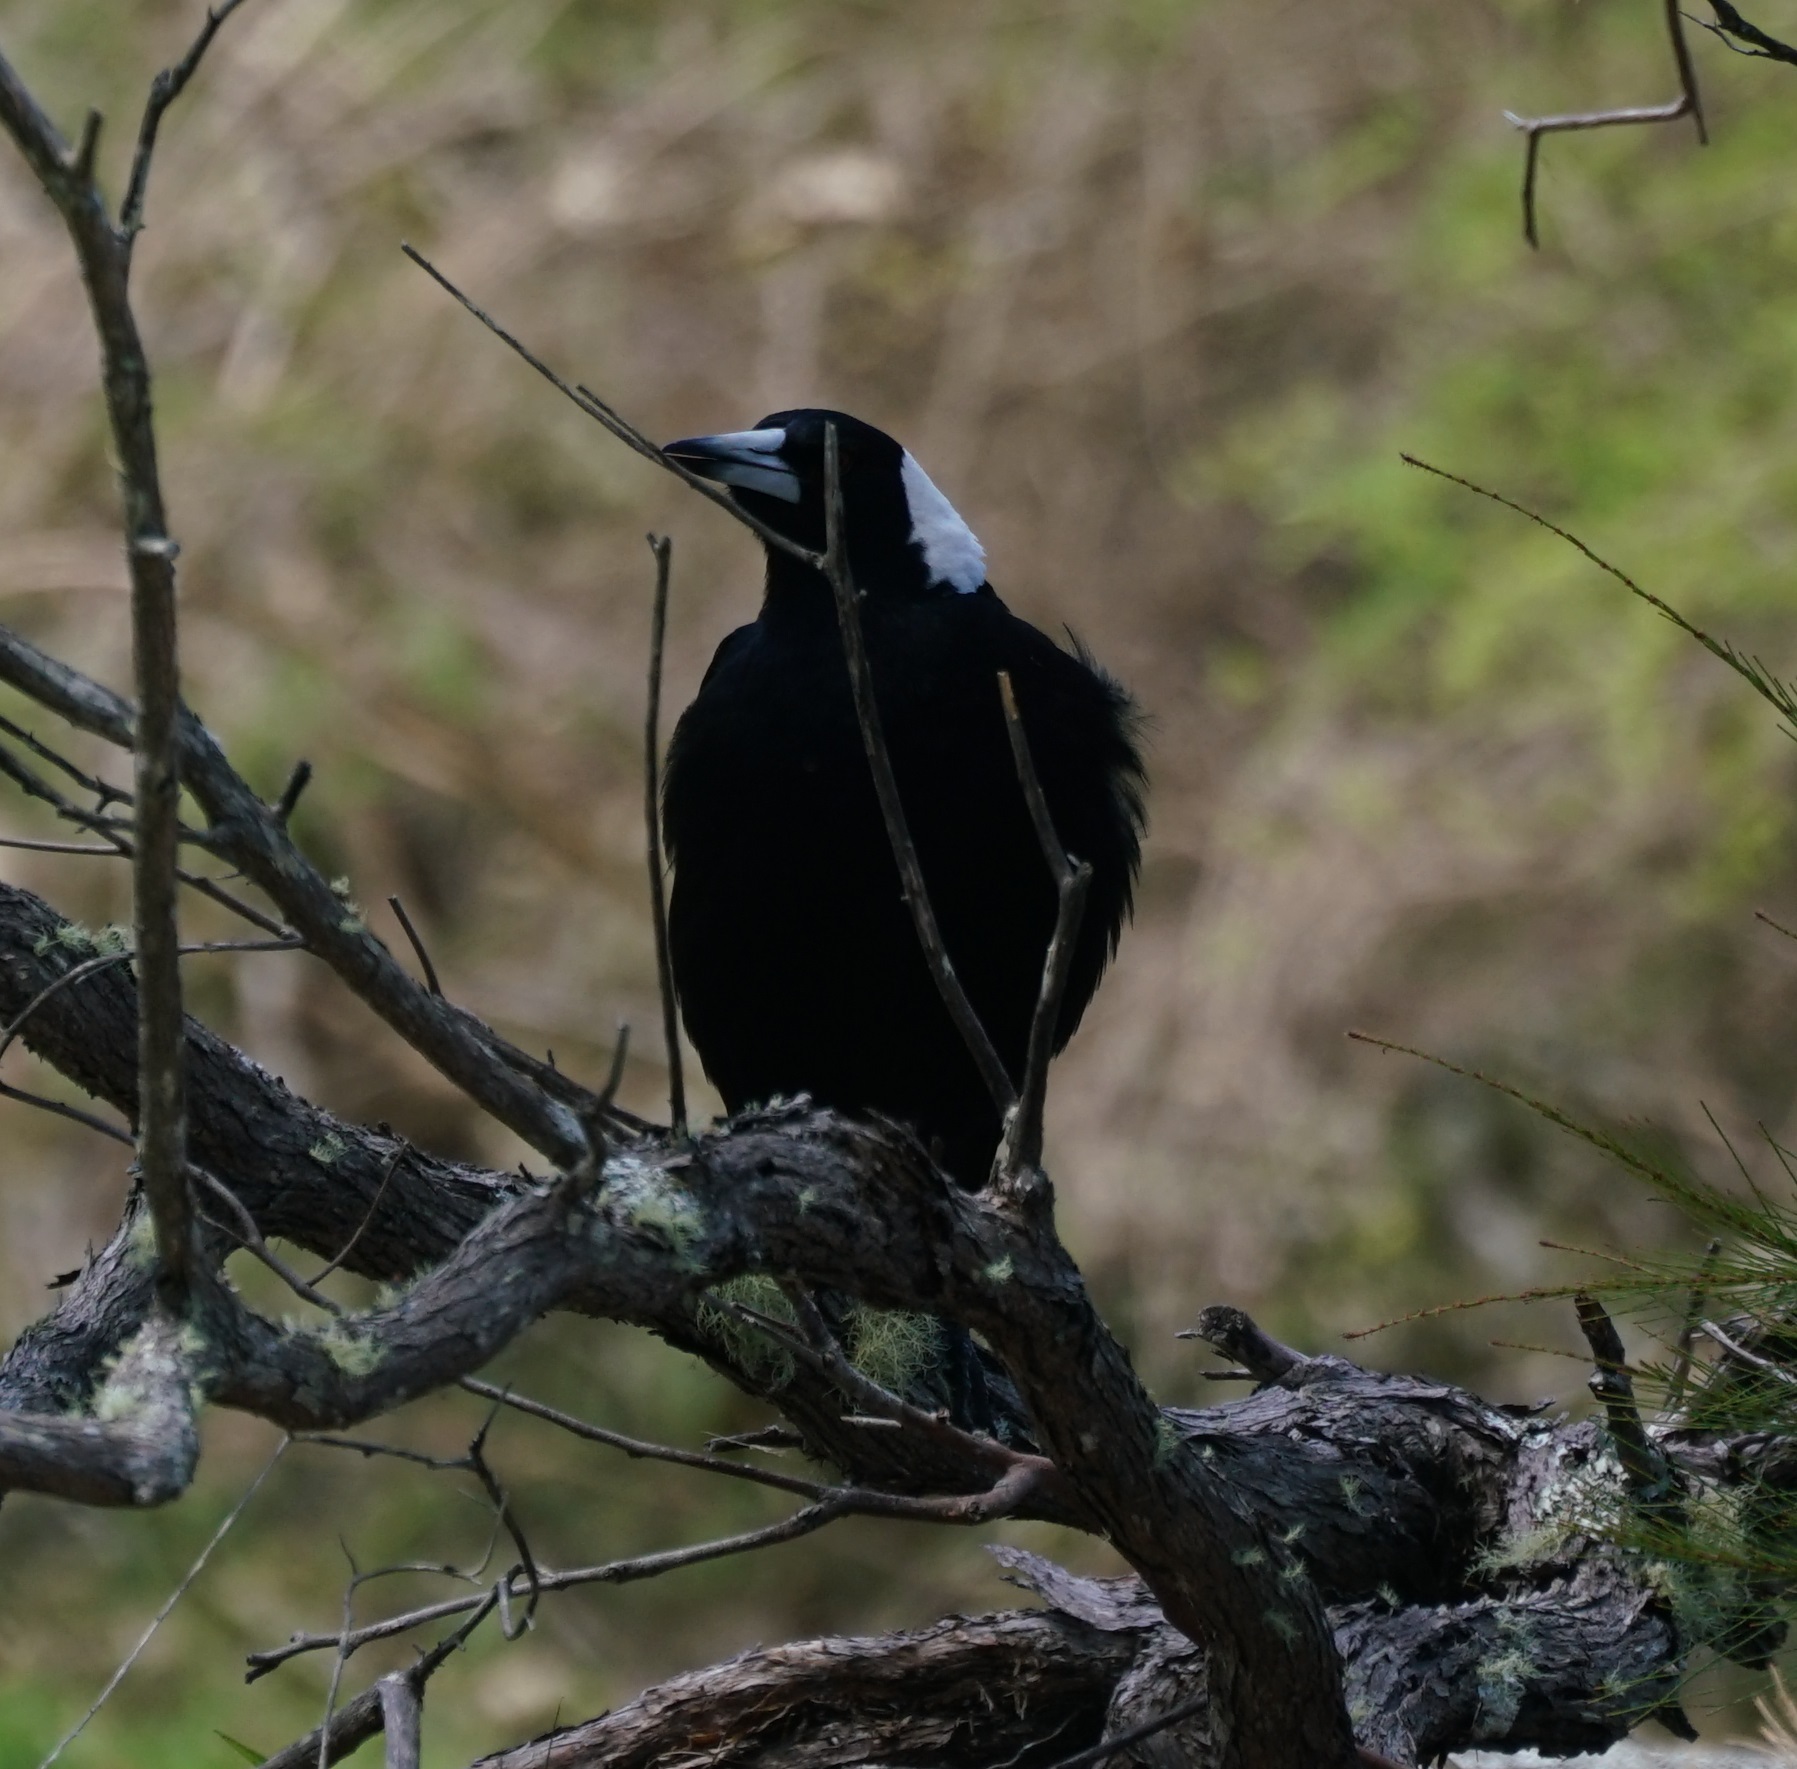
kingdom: Animalia
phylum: Chordata
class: Aves
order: Passeriformes
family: Cracticidae
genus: Gymnorhina
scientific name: Gymnorhina tibicen
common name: Australian magpie
